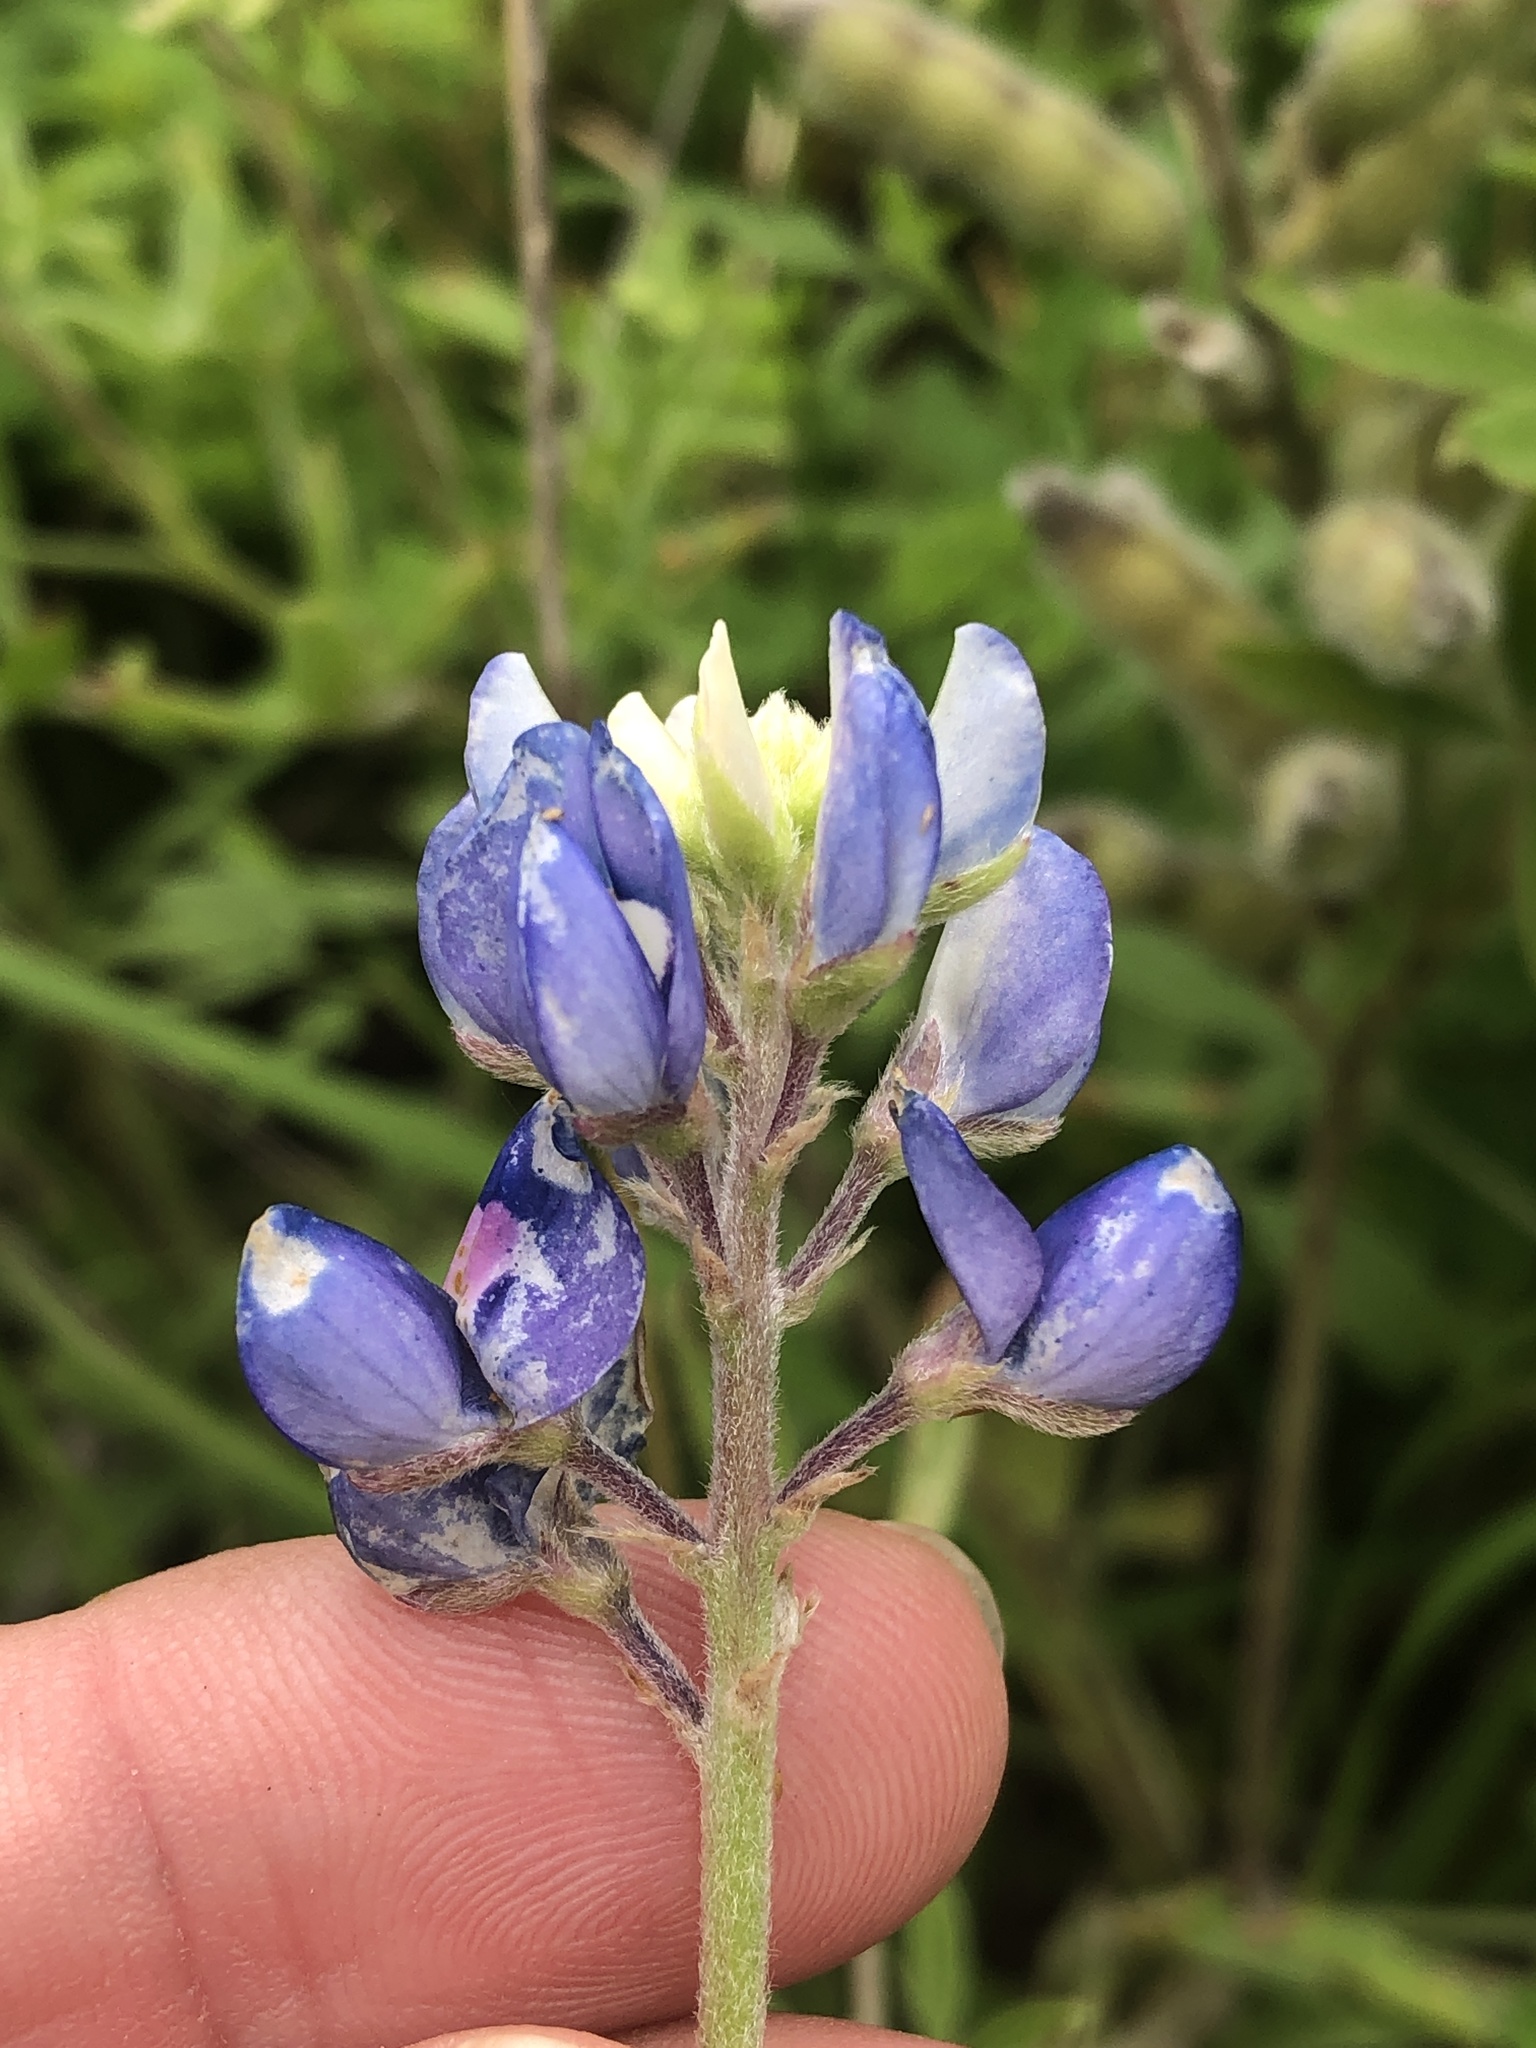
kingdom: Plantae
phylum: Tracheophyta
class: Magnoliopsida
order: Fabales
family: Fabaceae
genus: Lupinus
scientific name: Lupinus texensis
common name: Texas bluebonnet
